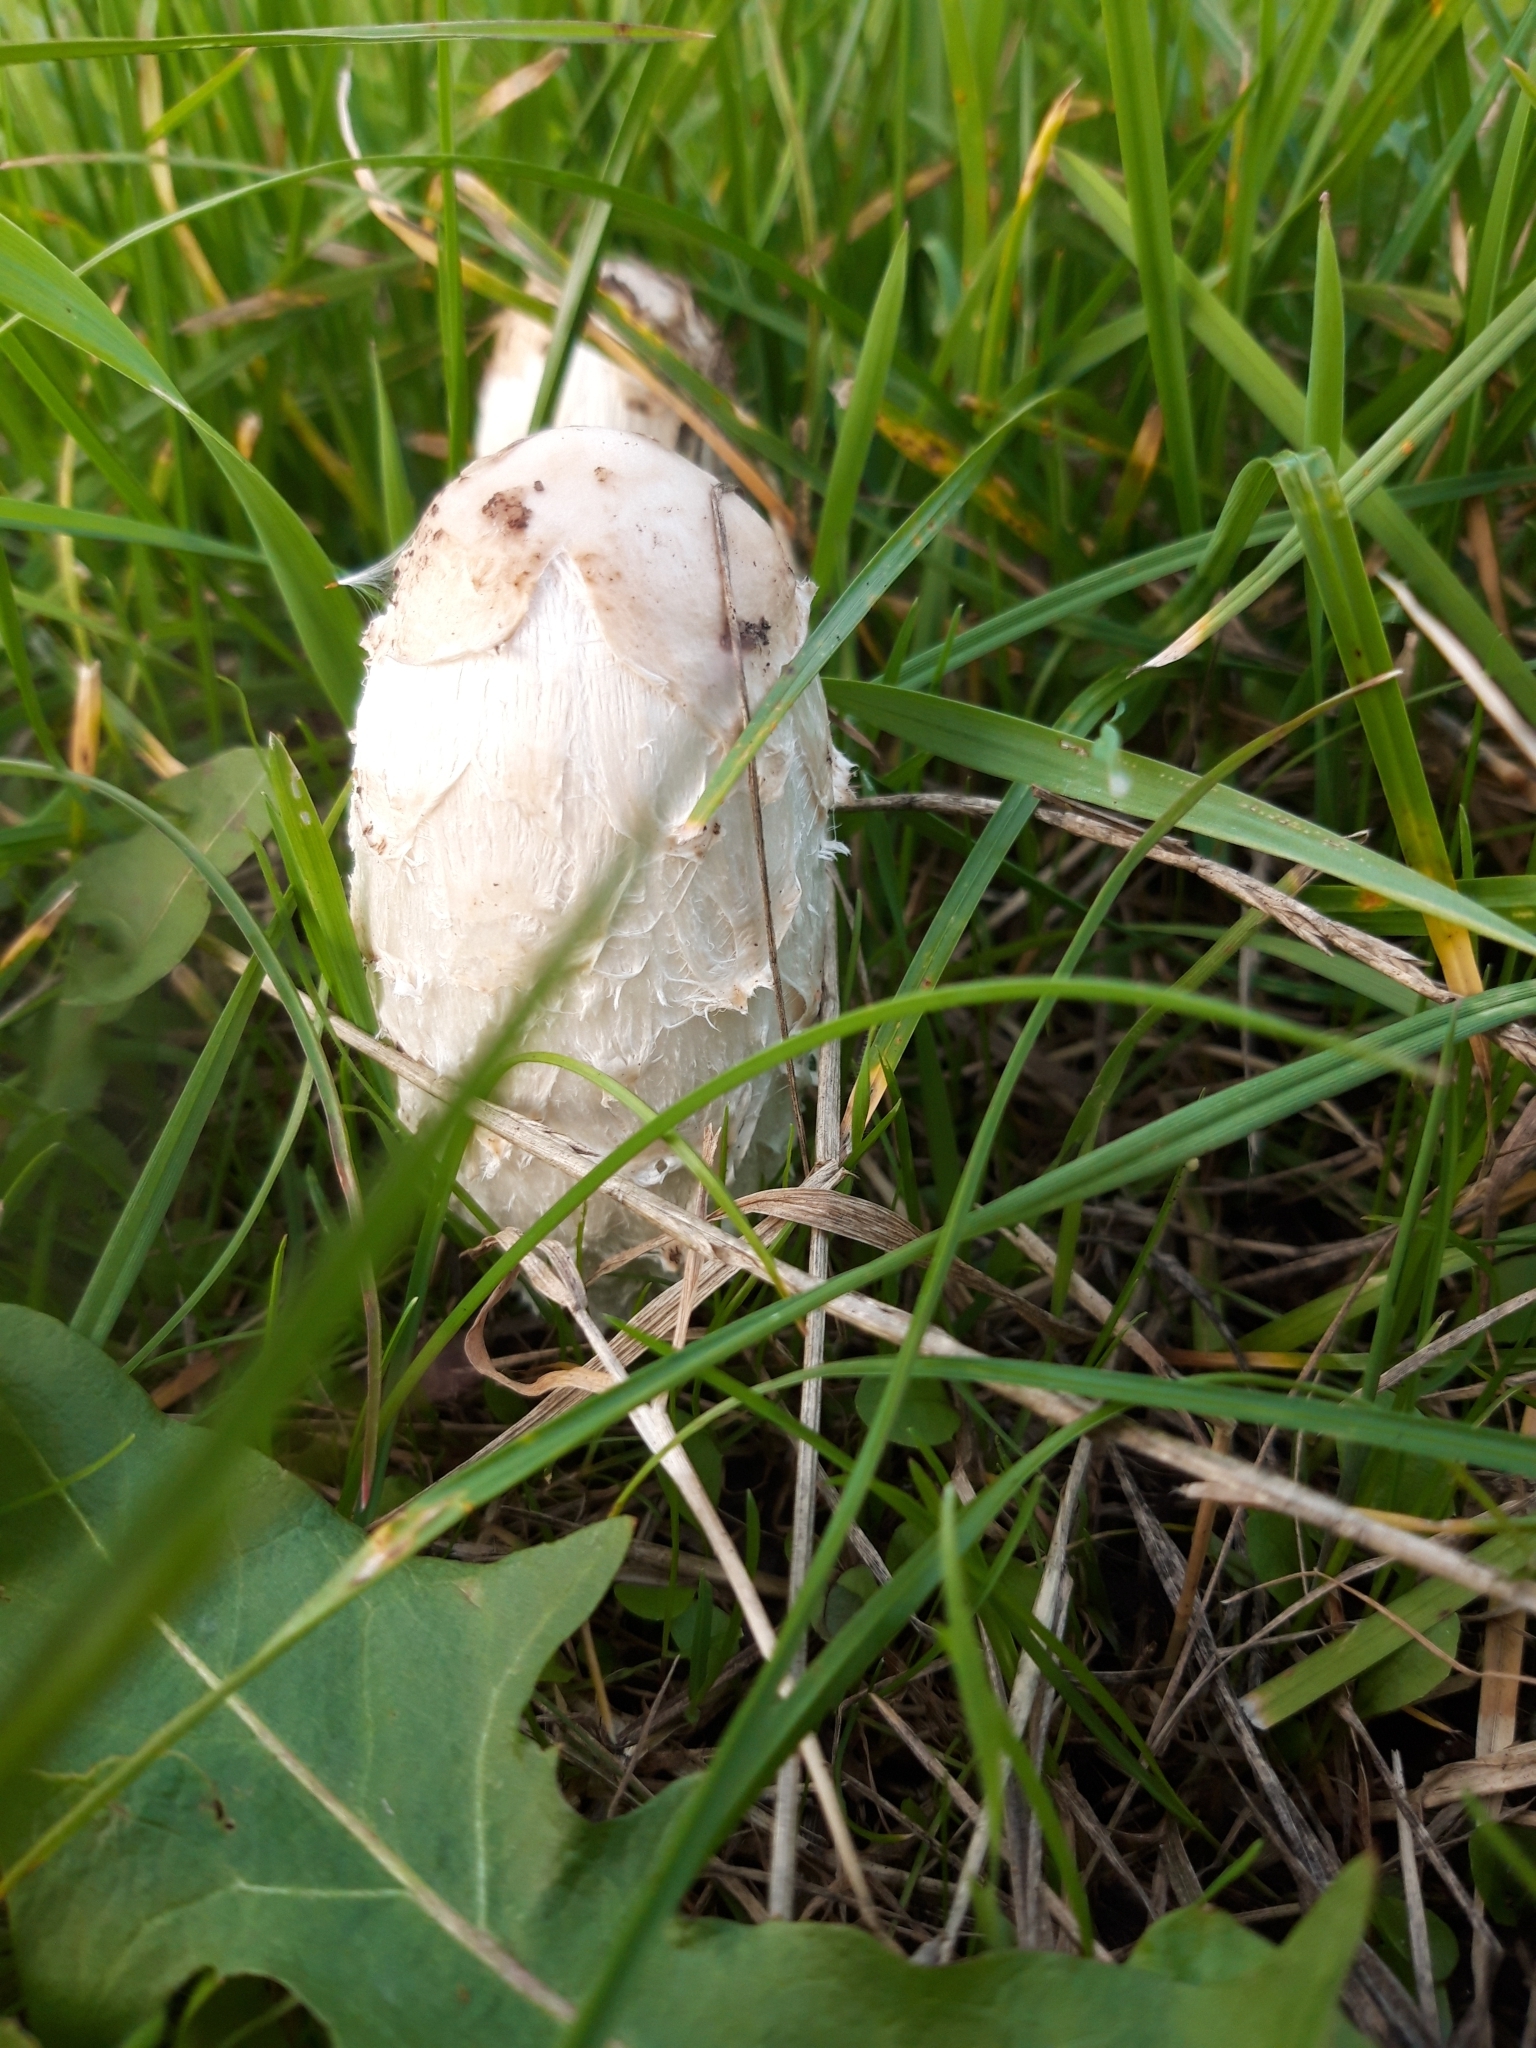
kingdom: Fungi
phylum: Basidiomycota
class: Agaricomycetes
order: Agaricales
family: Agaricaceae
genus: Coprinus
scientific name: Coprinus comatus
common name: Lawyer's wig
